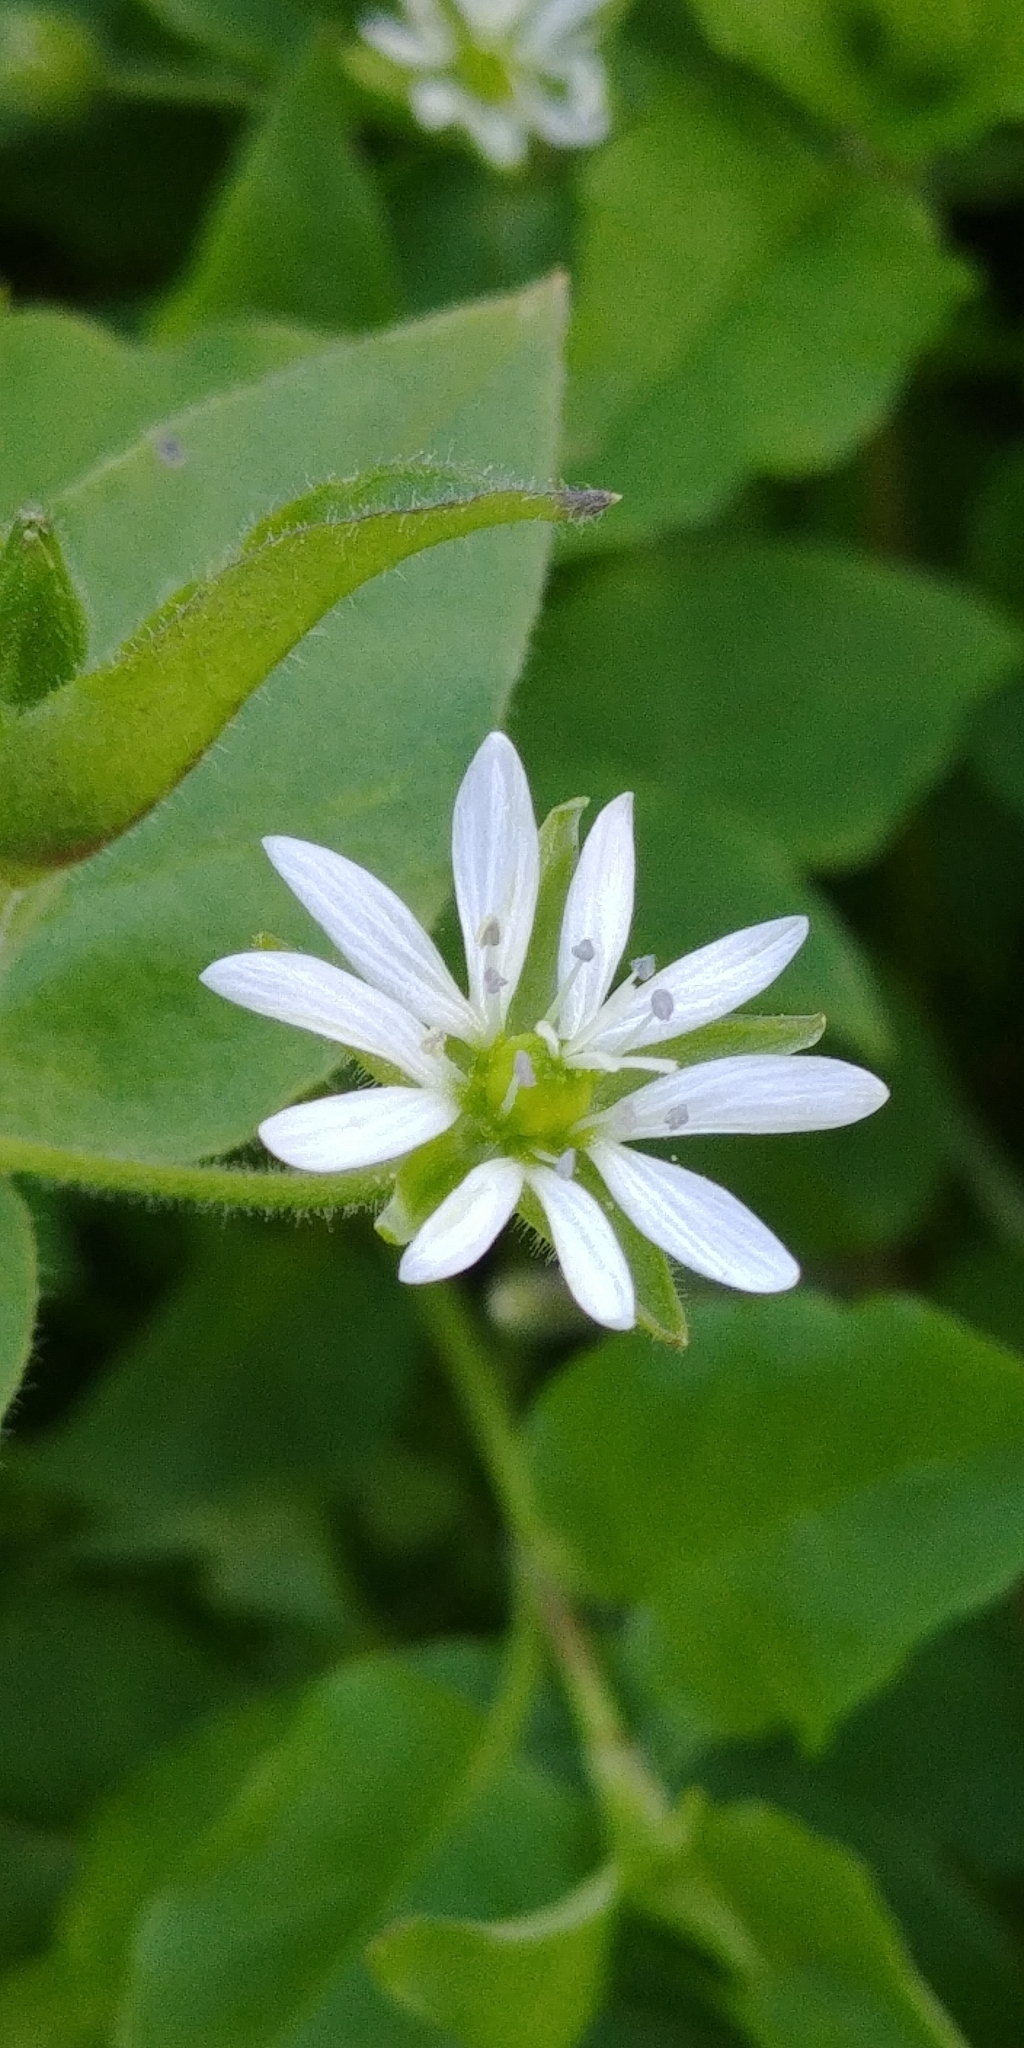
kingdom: Plantae
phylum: Tracheophyta
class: Magnoliopsida
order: Caryophyllales
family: Caryophyllaceae
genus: Stellaria
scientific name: Stellaria aquatica
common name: Water chickweed
